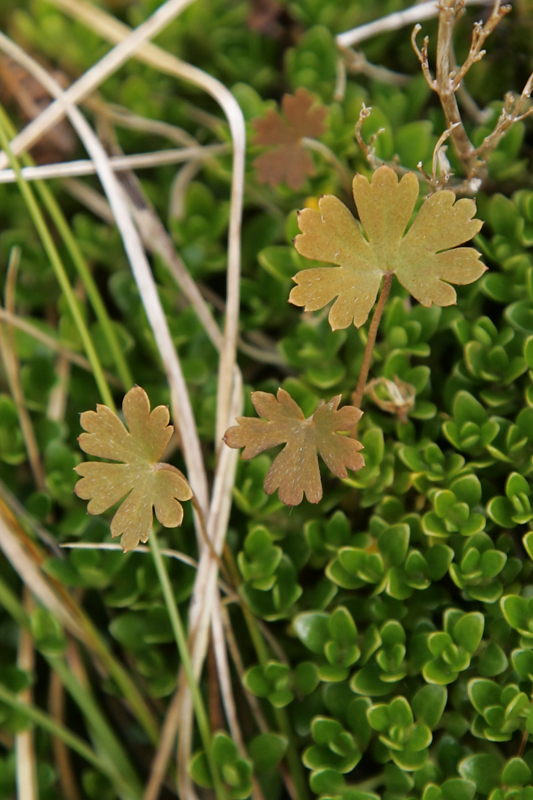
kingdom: Plantae
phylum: Tracheophyta
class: Magnoliopsida
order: Geraniales
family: Geraniaceae
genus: Geranium
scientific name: Geranium
